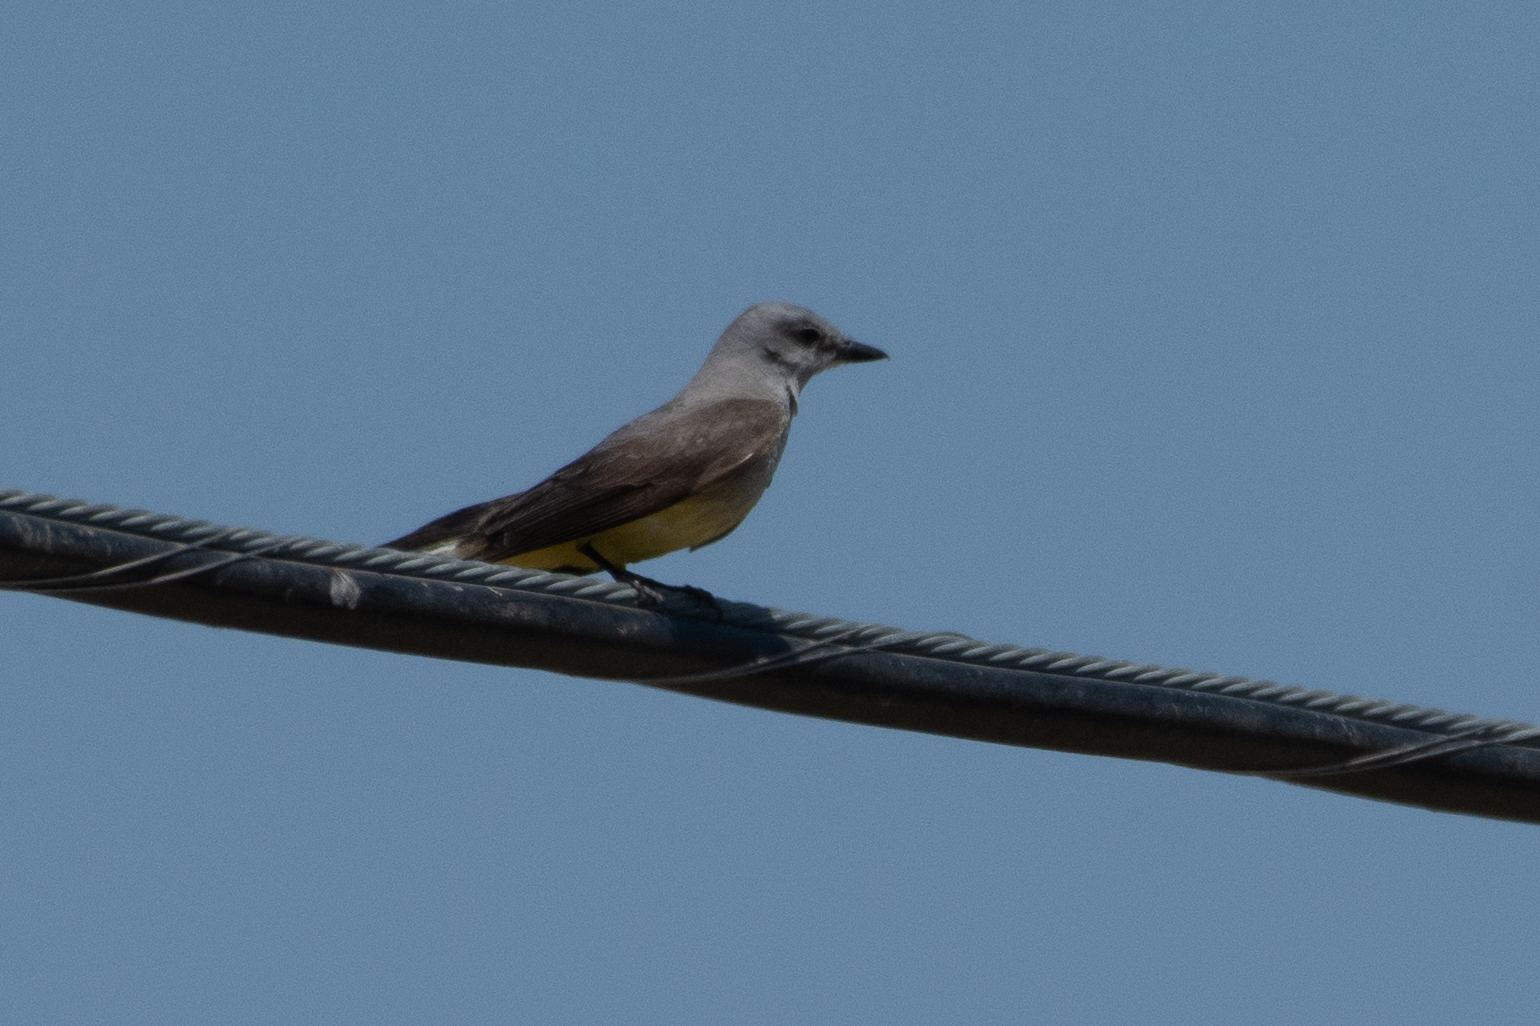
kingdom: Animalia
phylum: Chordata
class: Aves
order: Passeriformes
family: Tyrannidae
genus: Tyrannus
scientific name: Tyrannus verticalis
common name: Western kingbird
